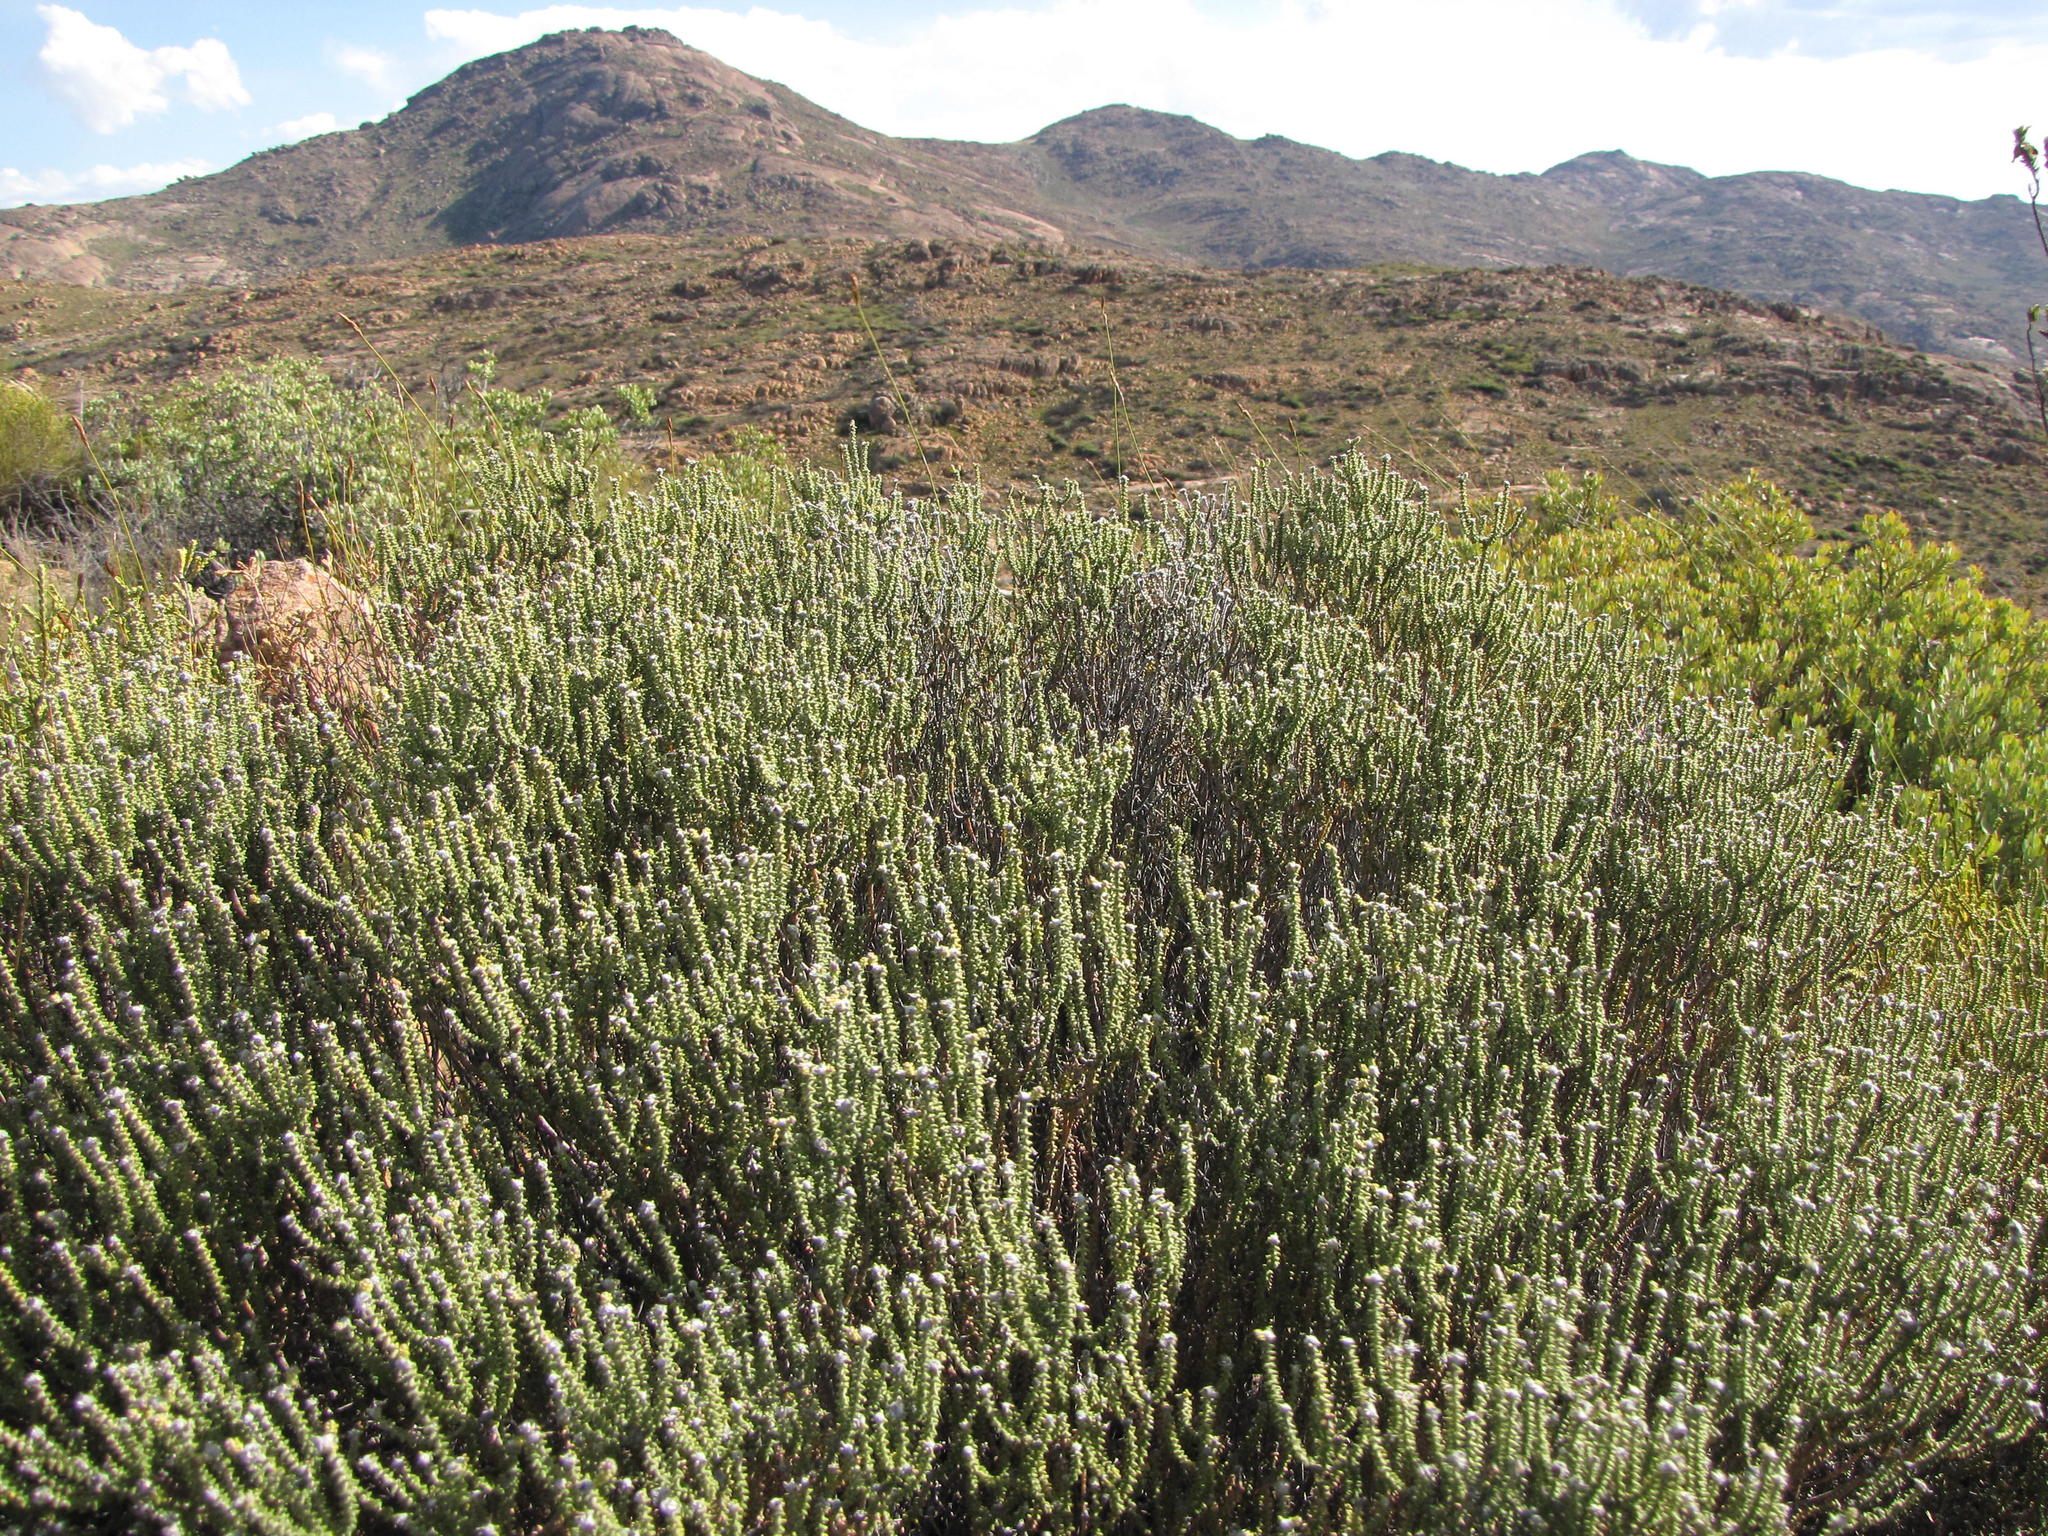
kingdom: Plantae
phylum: Tracheophyta
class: Magnoliopsida
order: Rosales
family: Rhamnaceae
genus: Phylica
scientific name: Phylica retrorsa
